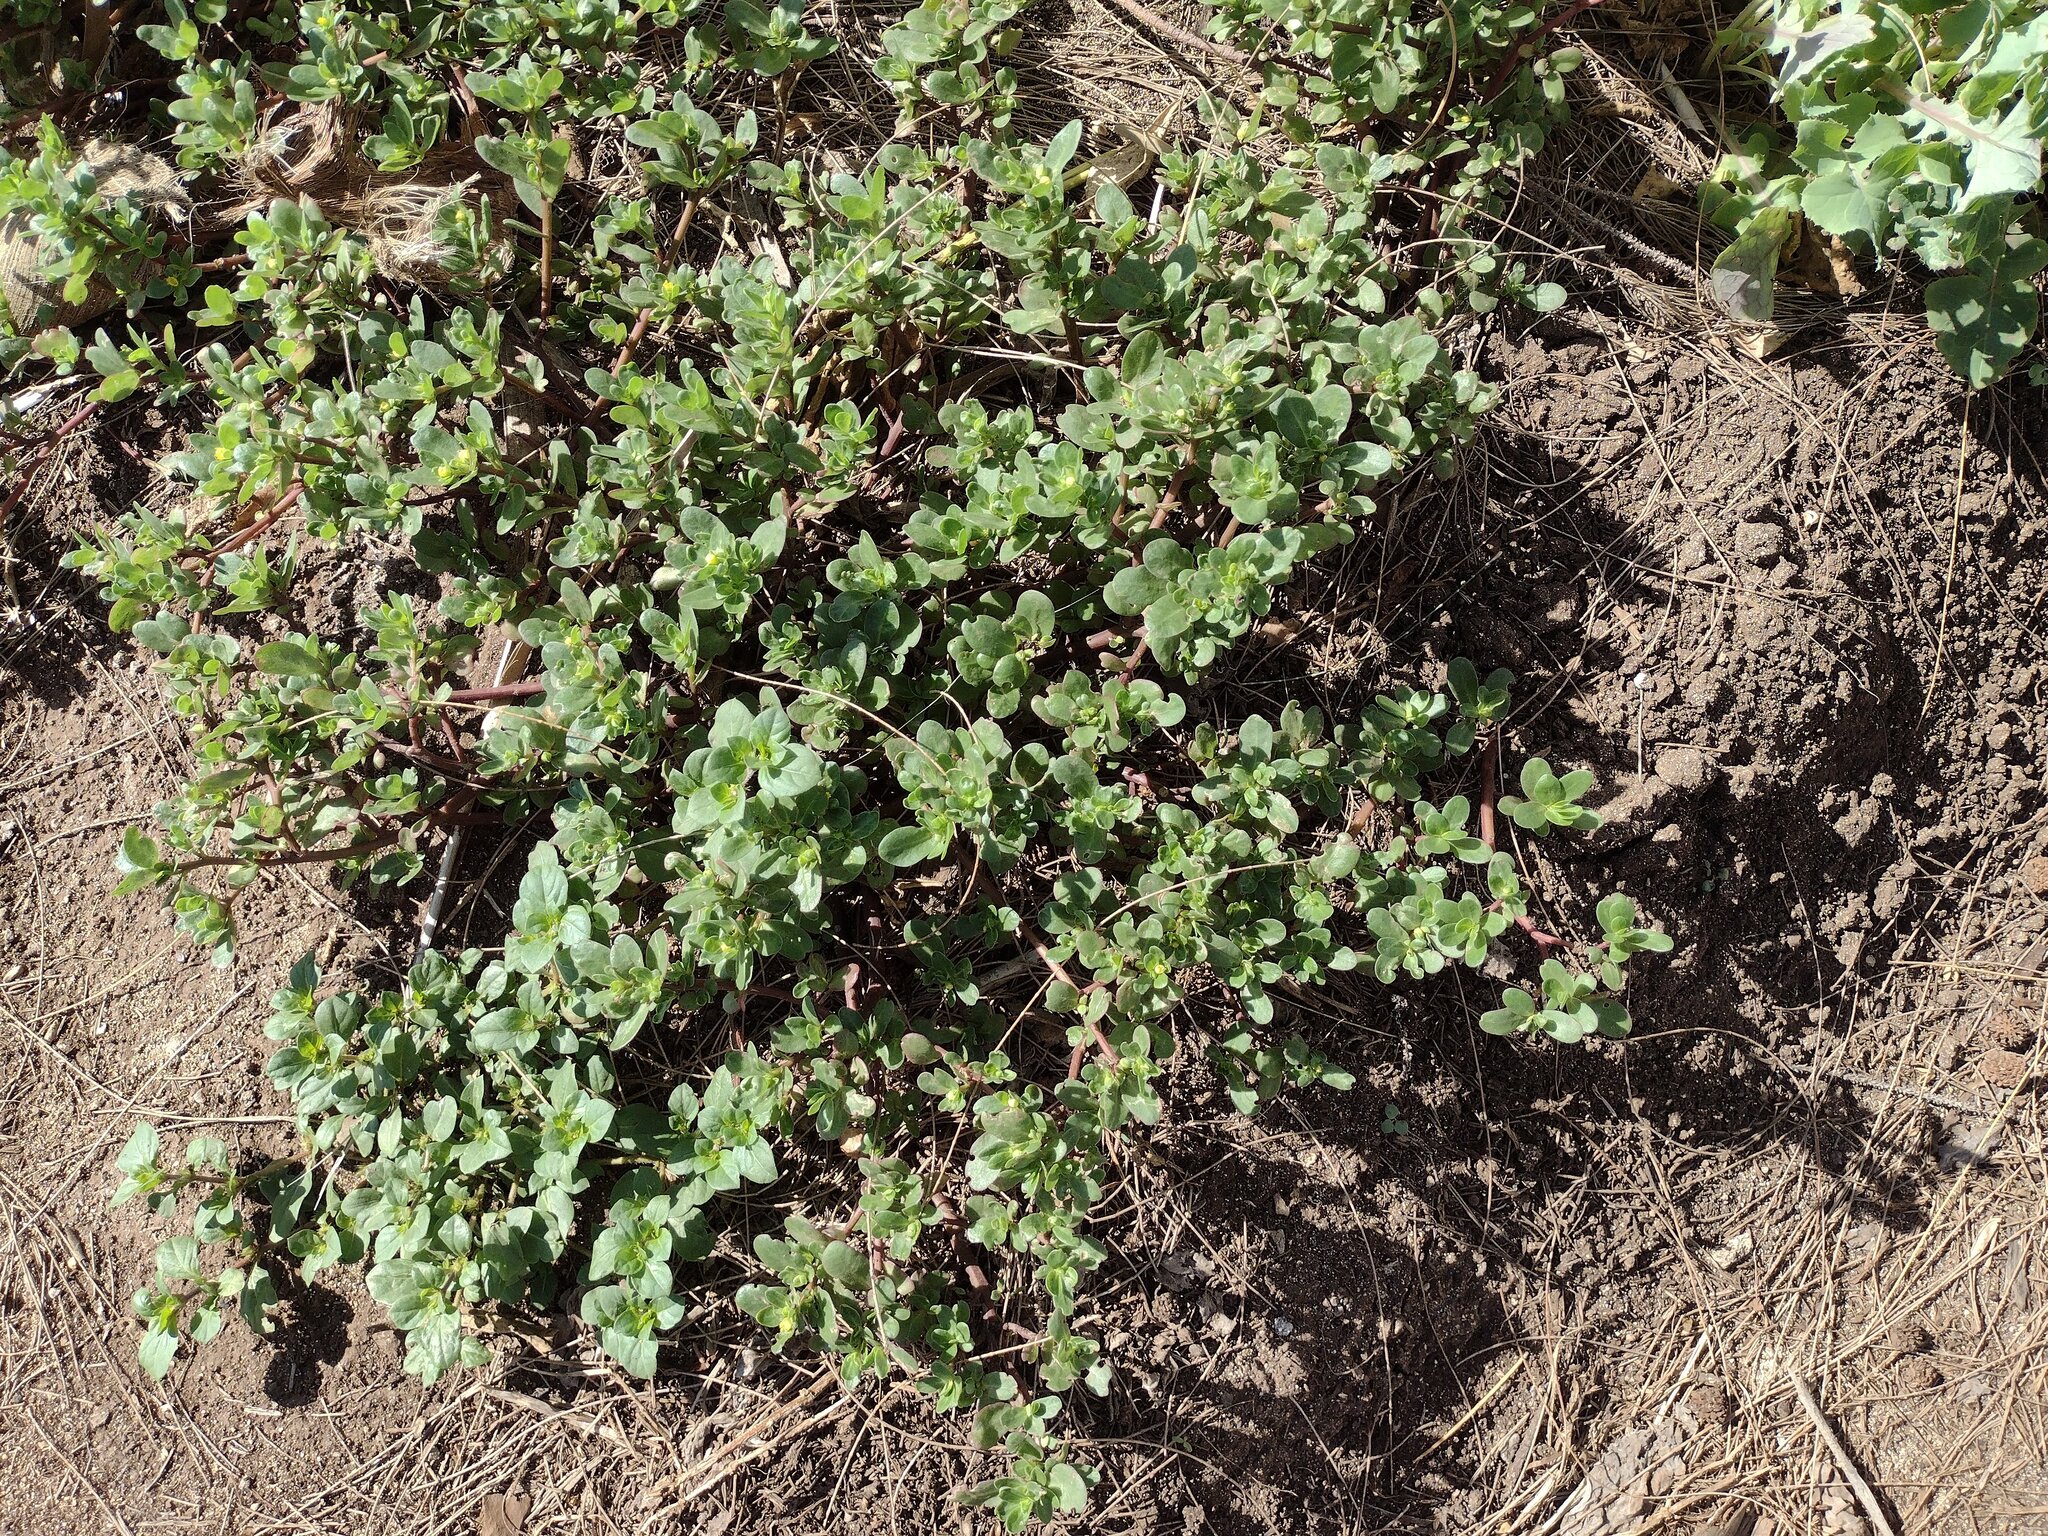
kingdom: Plantae
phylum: Tracheophyta
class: Magnoliopsida
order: Caryophyllales
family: Portulacaceae
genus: Portulaca
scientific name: Portulaca oleracea
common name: Common purslane
